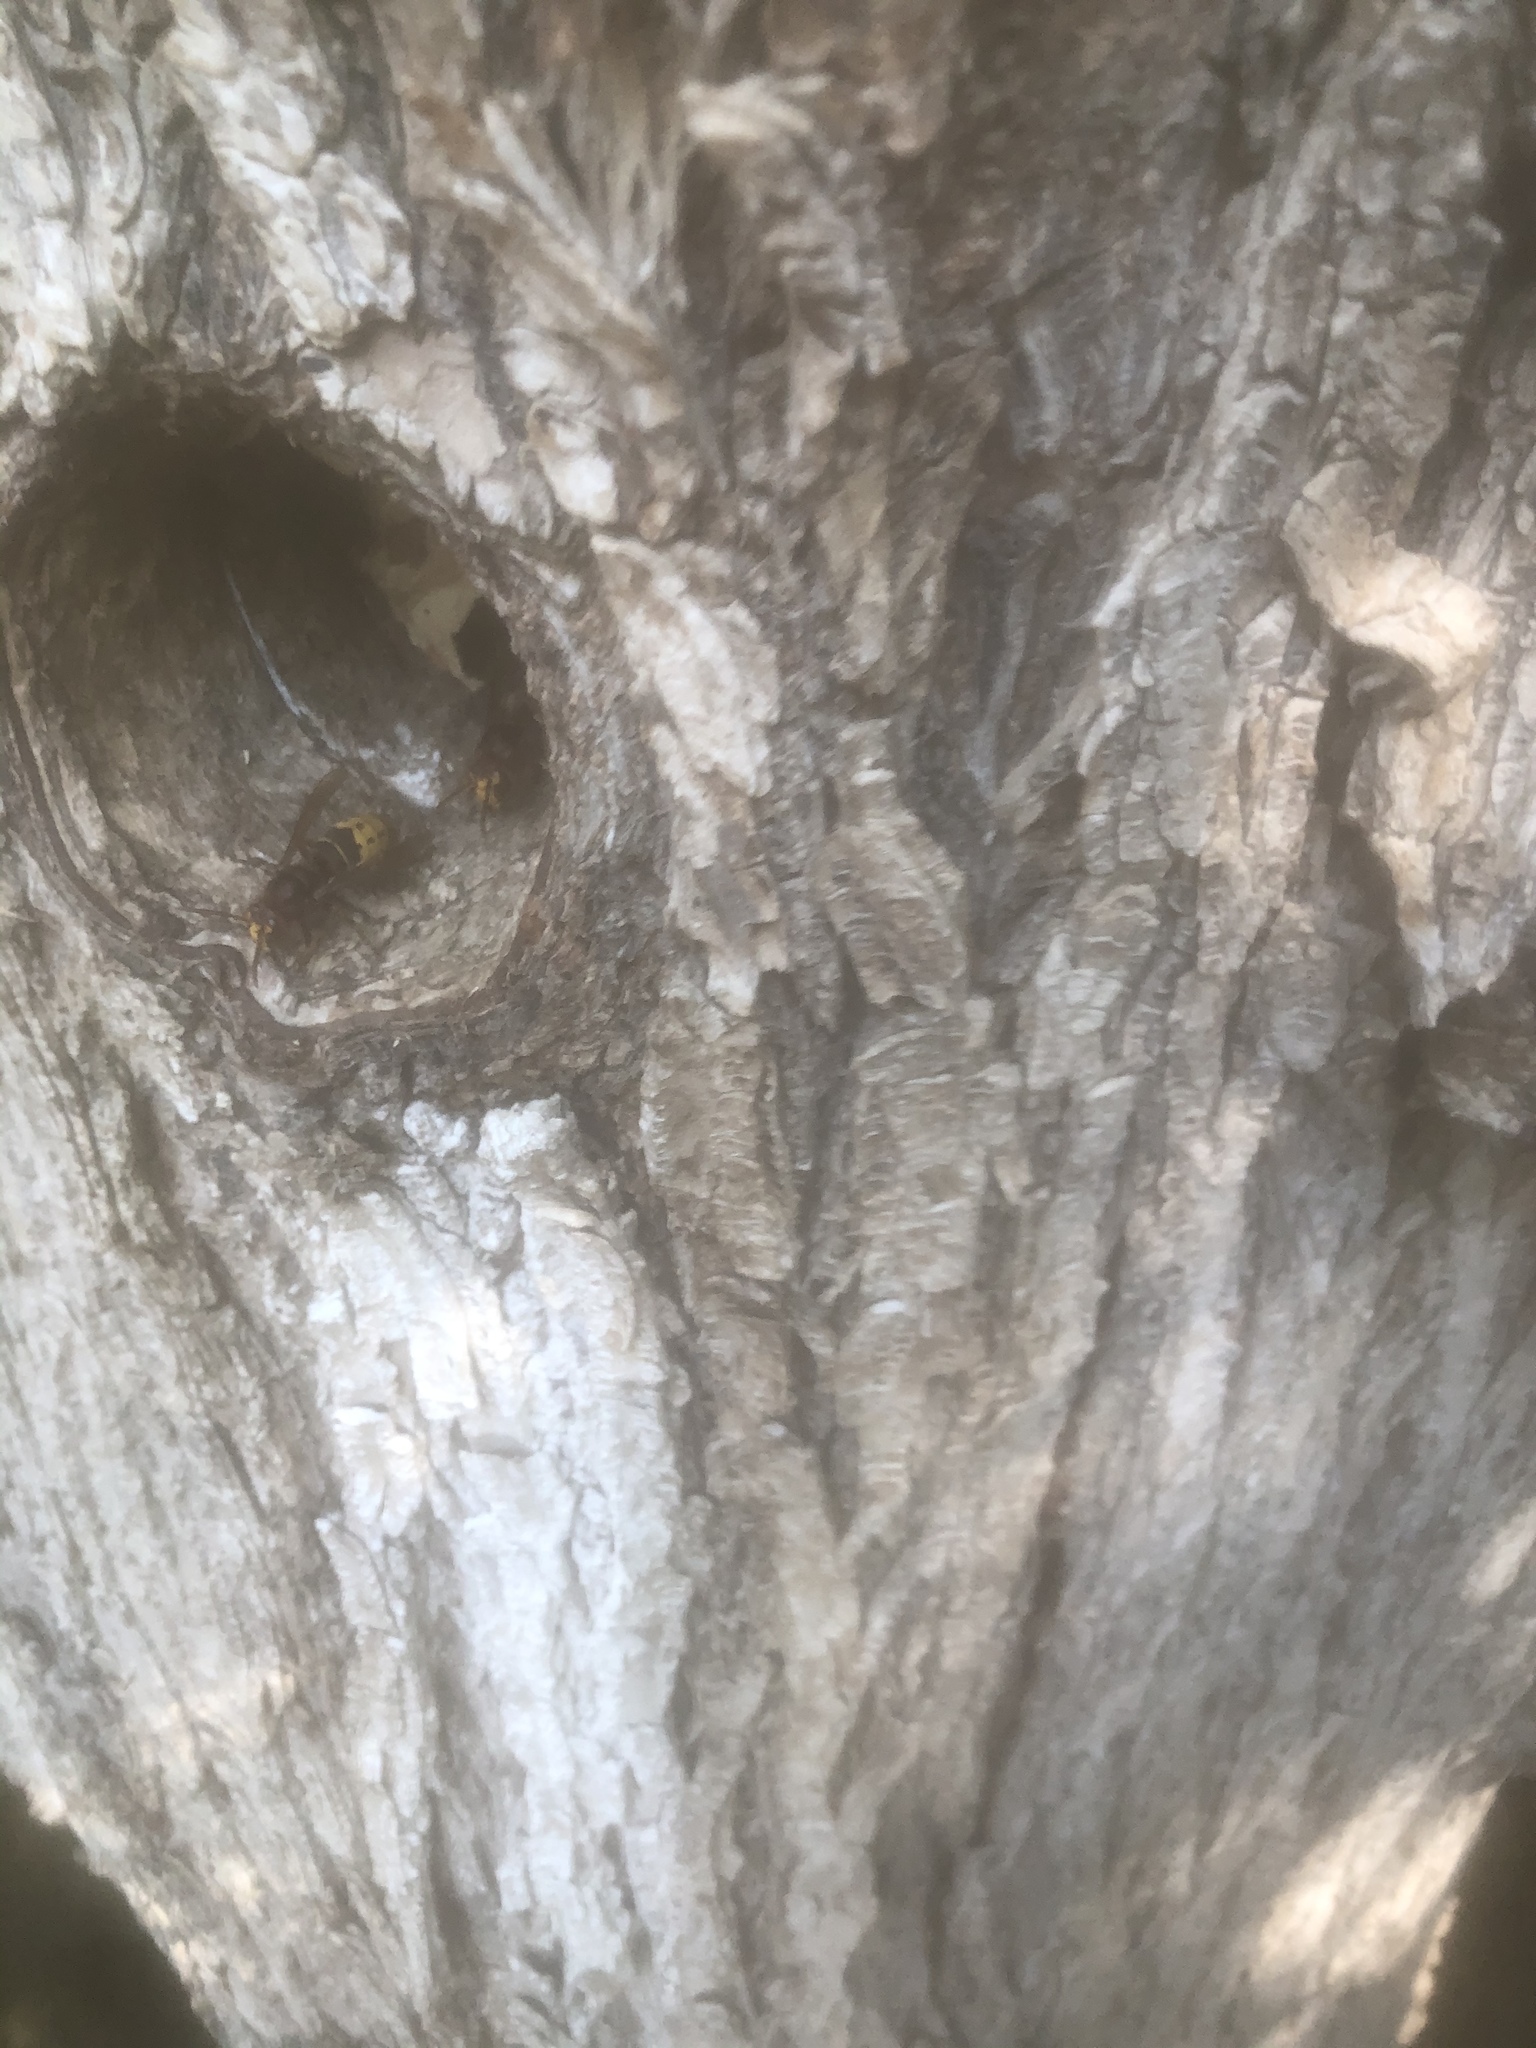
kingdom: Animalia
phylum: Arthropoda
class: Insecta
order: Hymenoptera
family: Vespidae
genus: Vespa
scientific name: Vespa crabro
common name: Hornet
